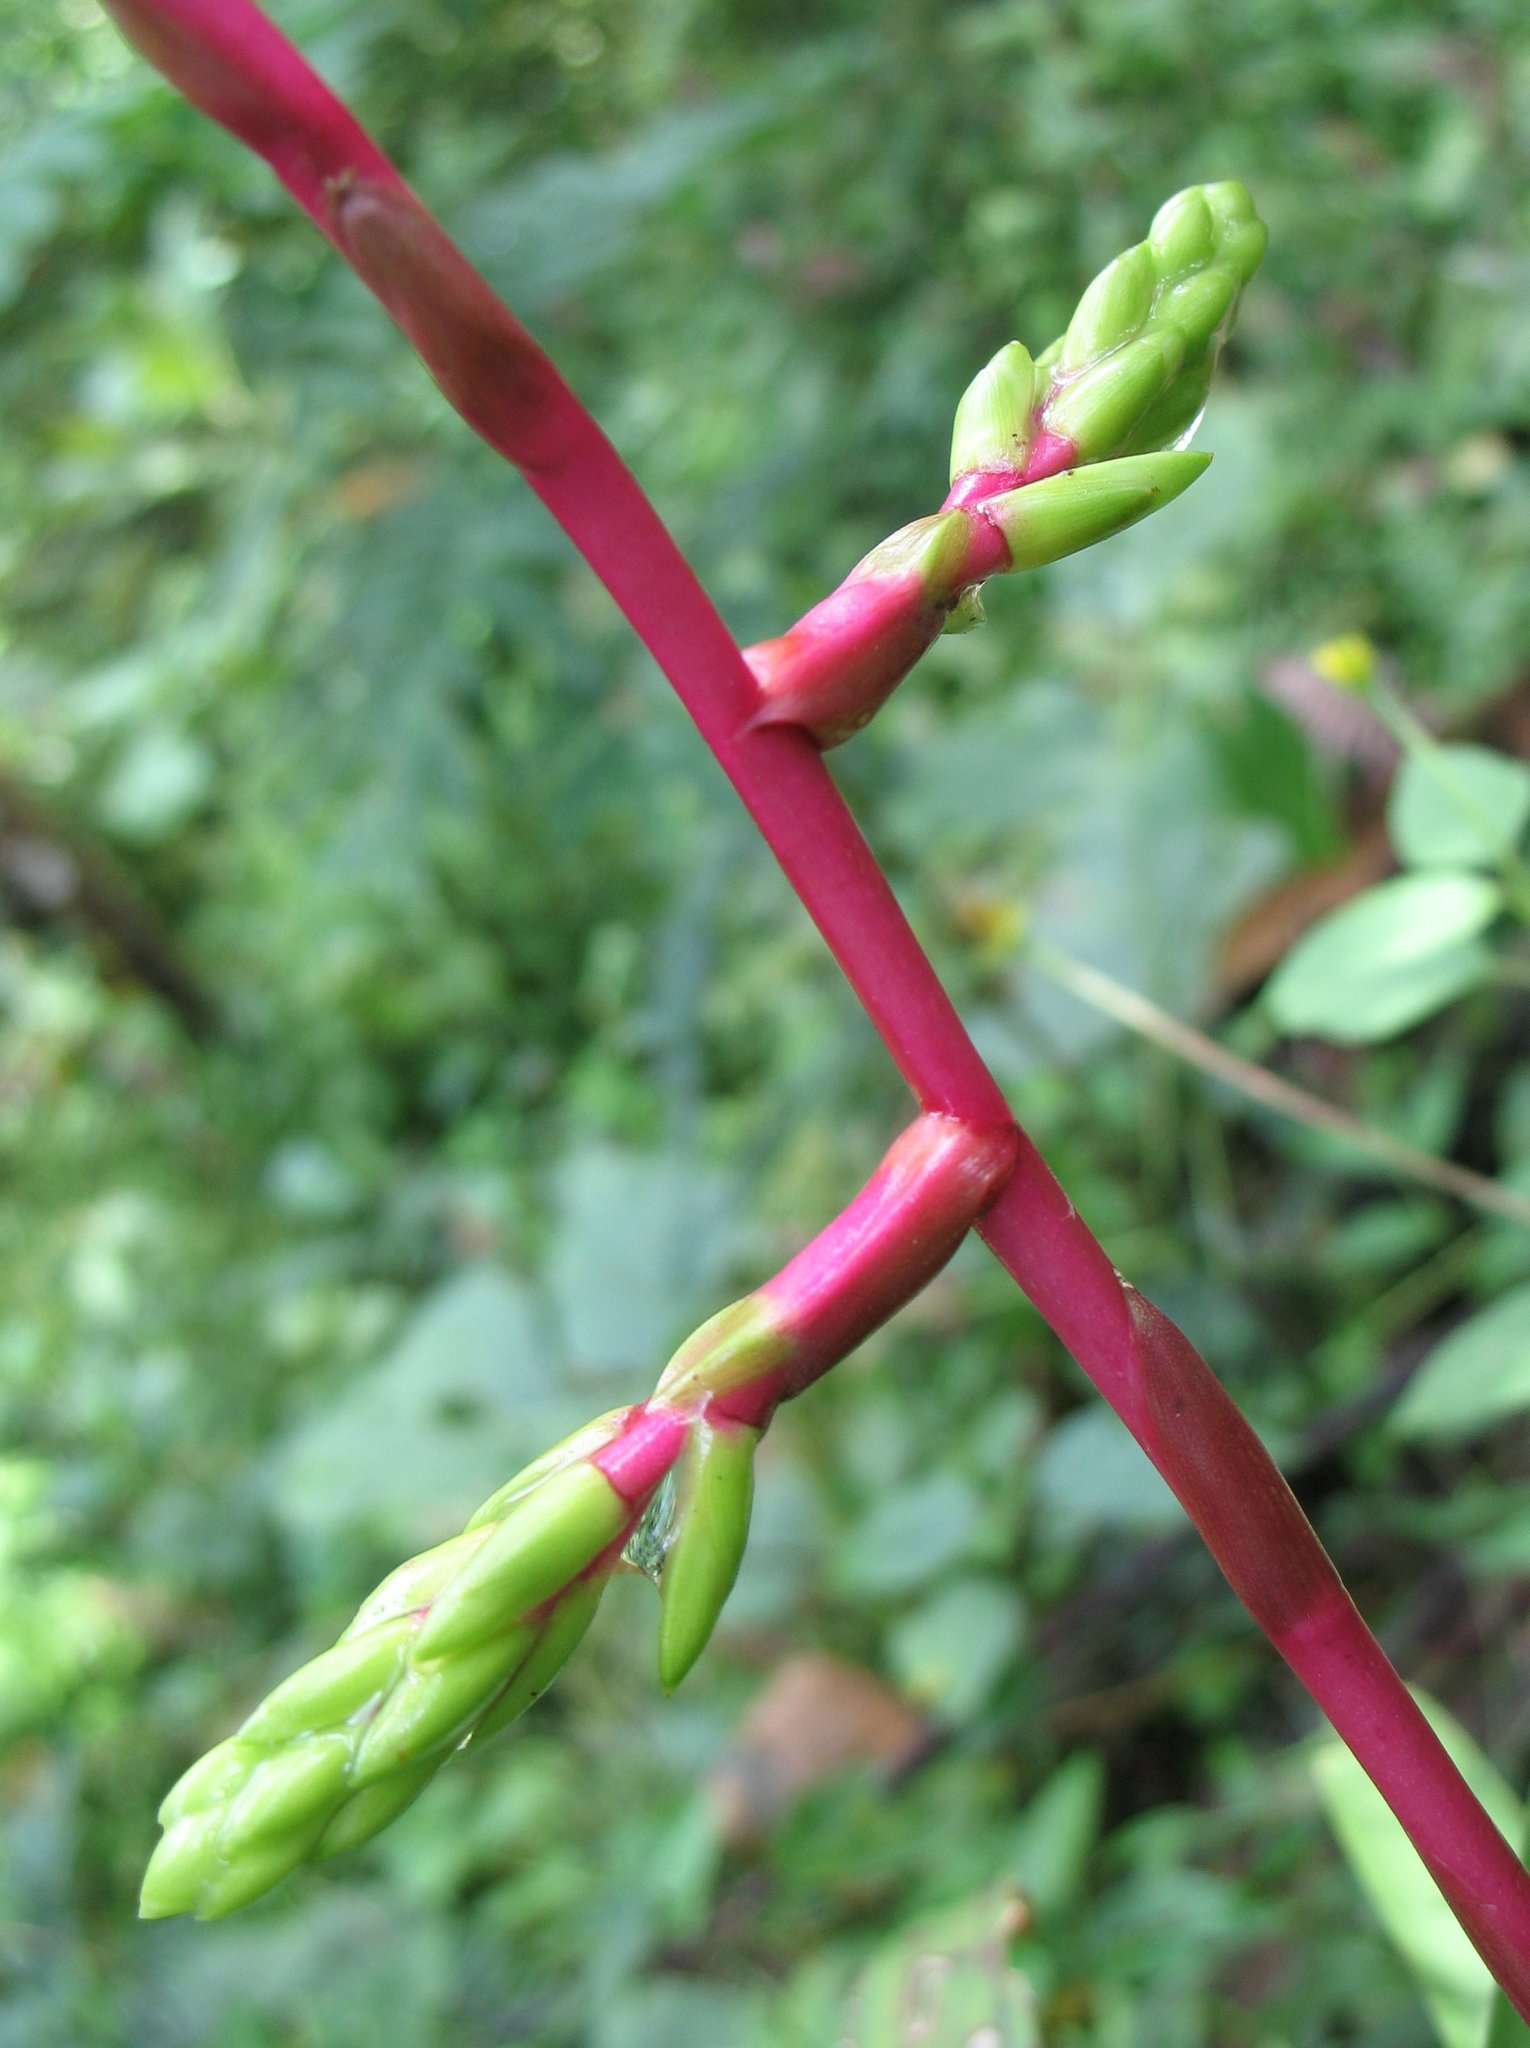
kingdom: Plantae
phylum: Tracheophyta
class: Liliopsida
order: Poales
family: Bromeliaceae
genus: Guzmania
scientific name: Guzmania rhonhofiana
